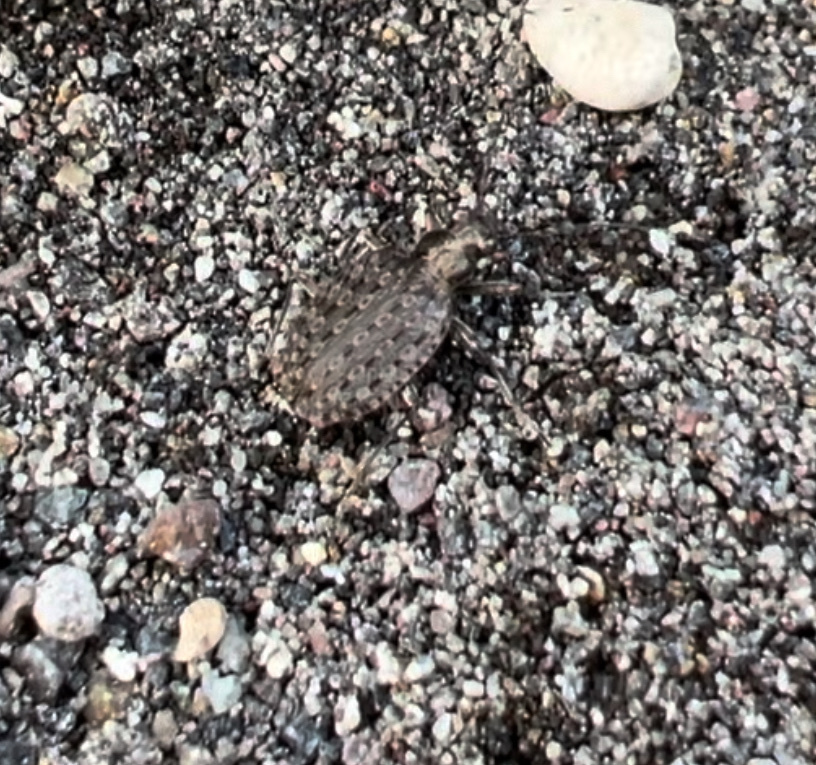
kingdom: Animalia
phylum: Arthropoda
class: Insecta
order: Coleoptera
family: Carabidae
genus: Opisthius
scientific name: Opisthius richardsoni
